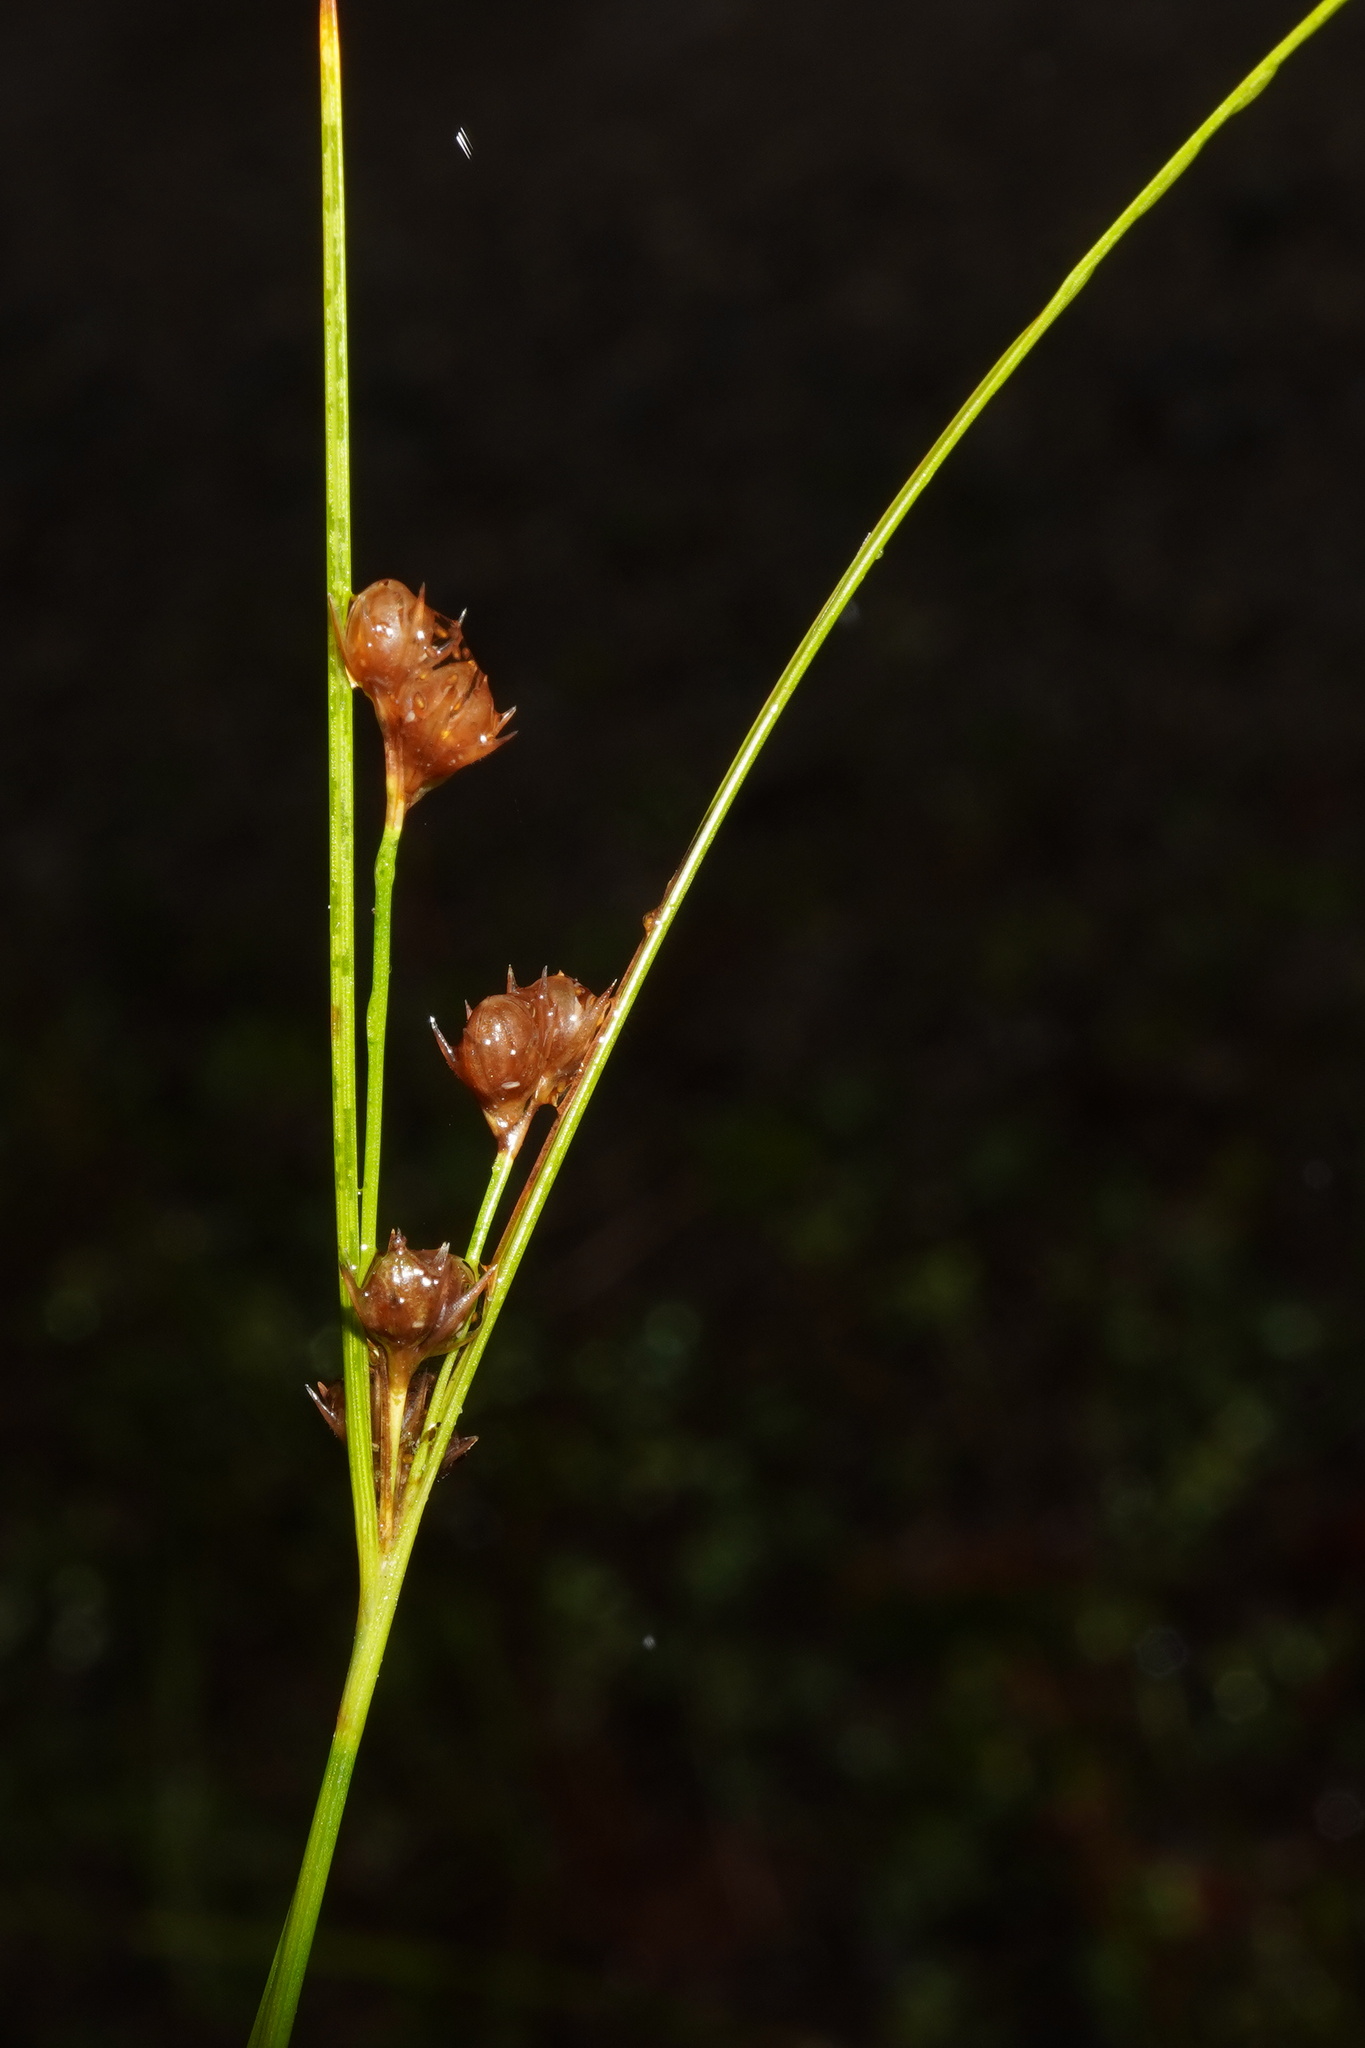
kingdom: Plantae
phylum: Tracheophyta
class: Liliopsida
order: Poales
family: Juncaceae
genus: Juncus
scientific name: Juncus tenuis
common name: Slender rush
